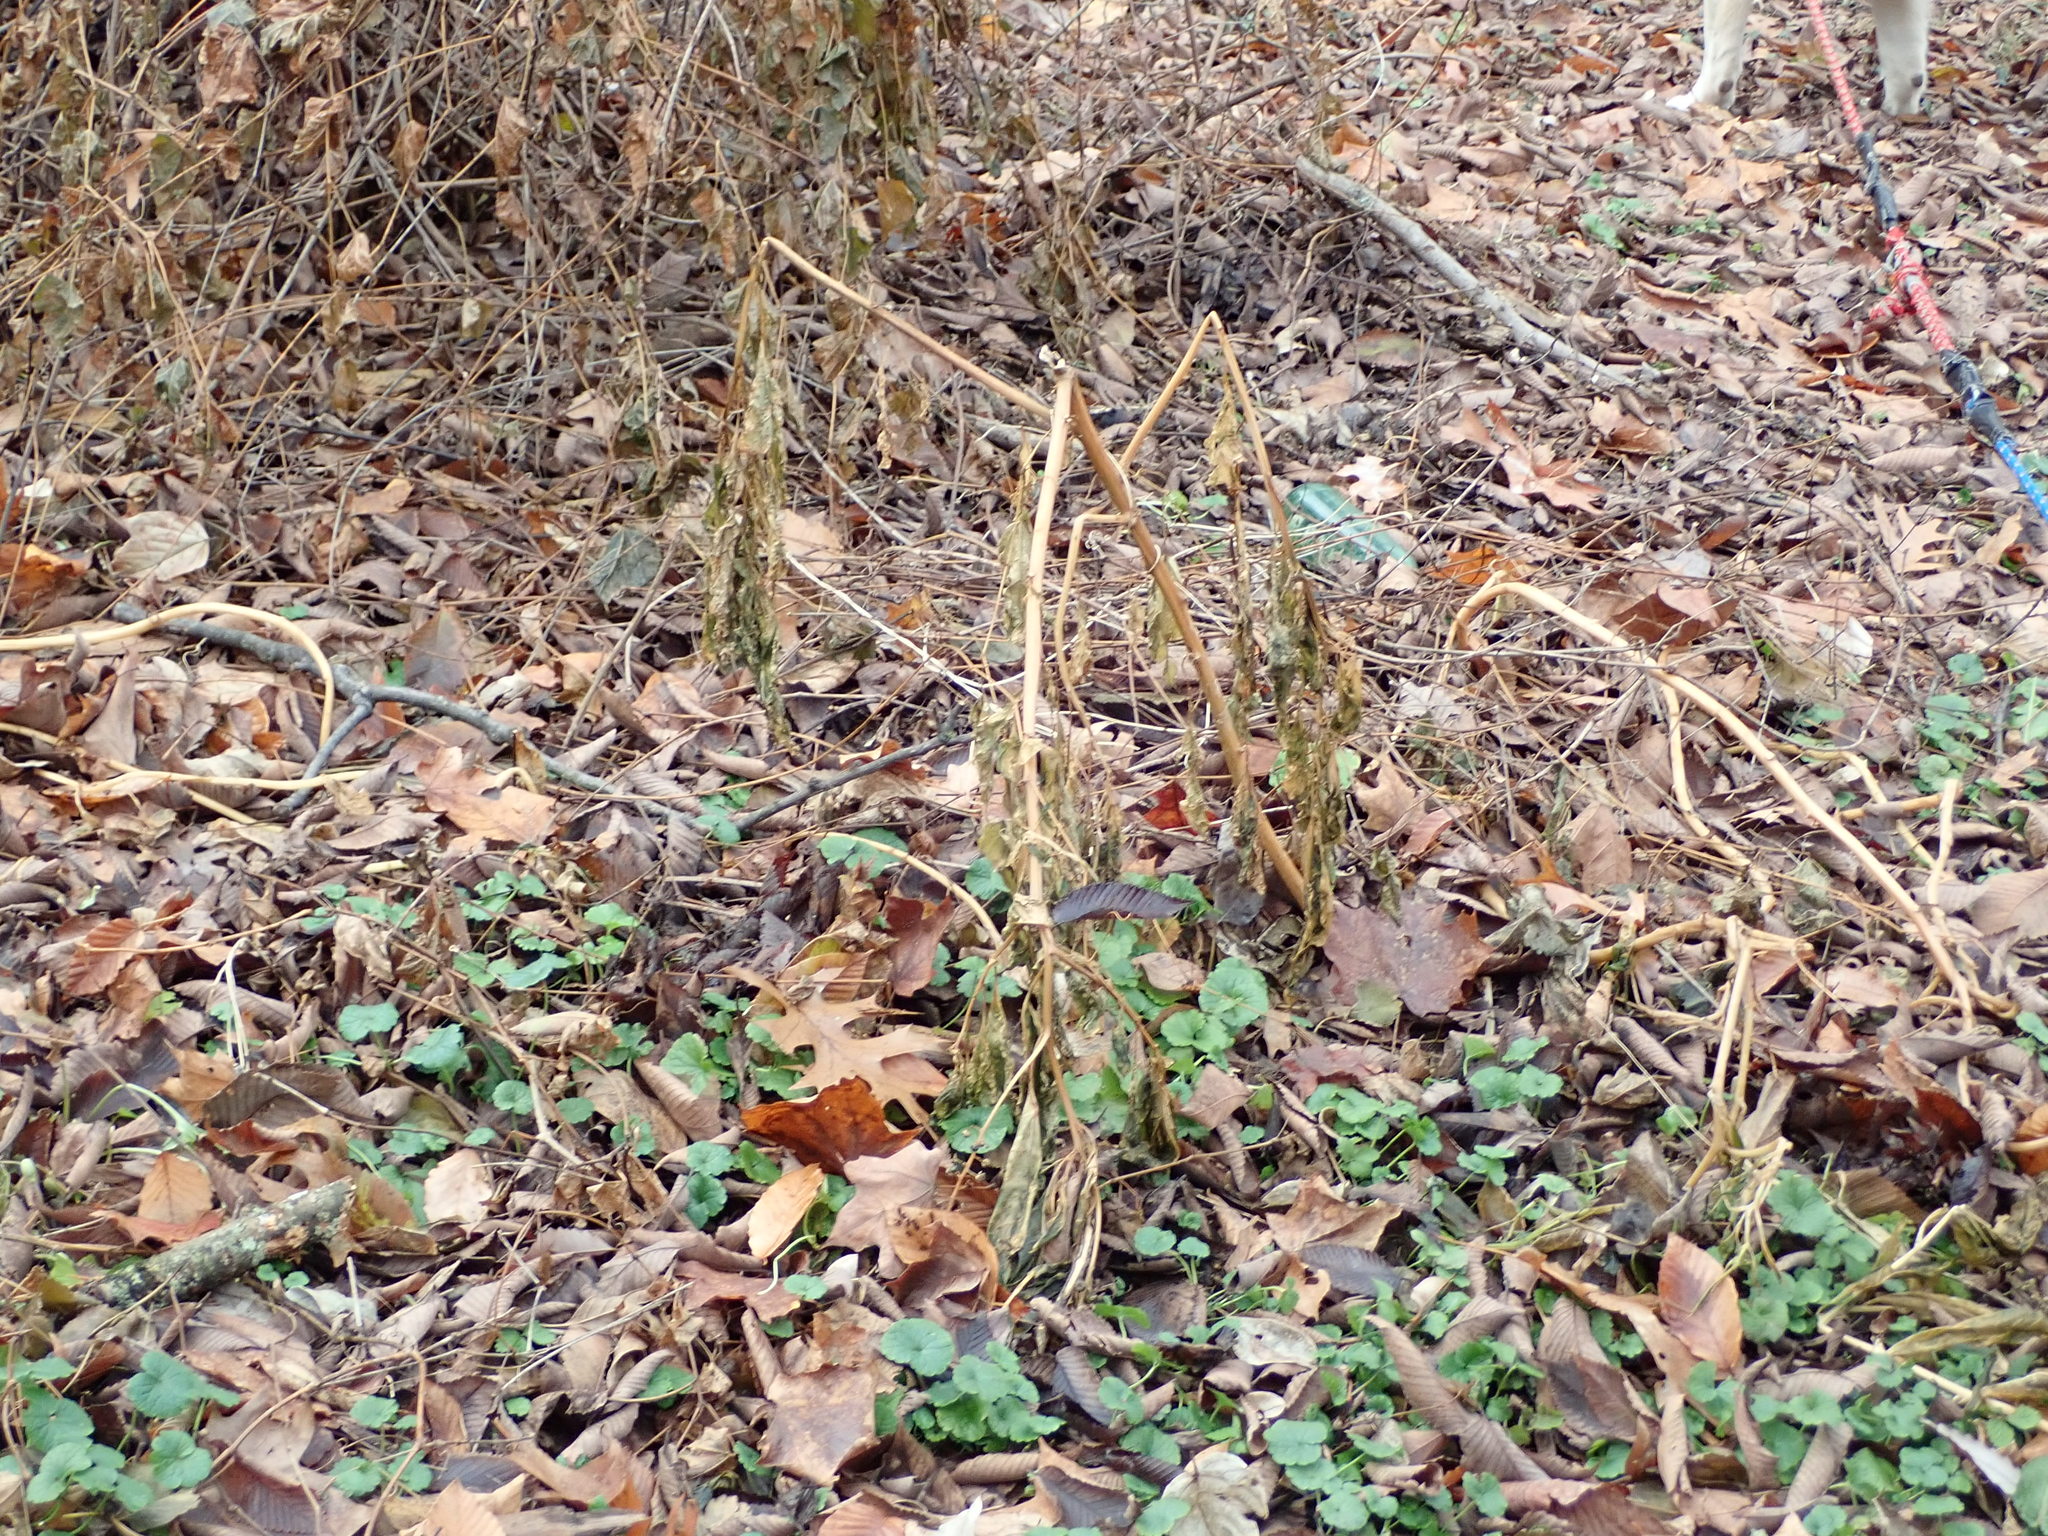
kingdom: Plantae
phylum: Tracheophyta
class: Magnoliopsida
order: Caryophyllales
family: Phytolaccaceae
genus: Phytolacca
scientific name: Phytolacca americana
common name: American pokeweed
